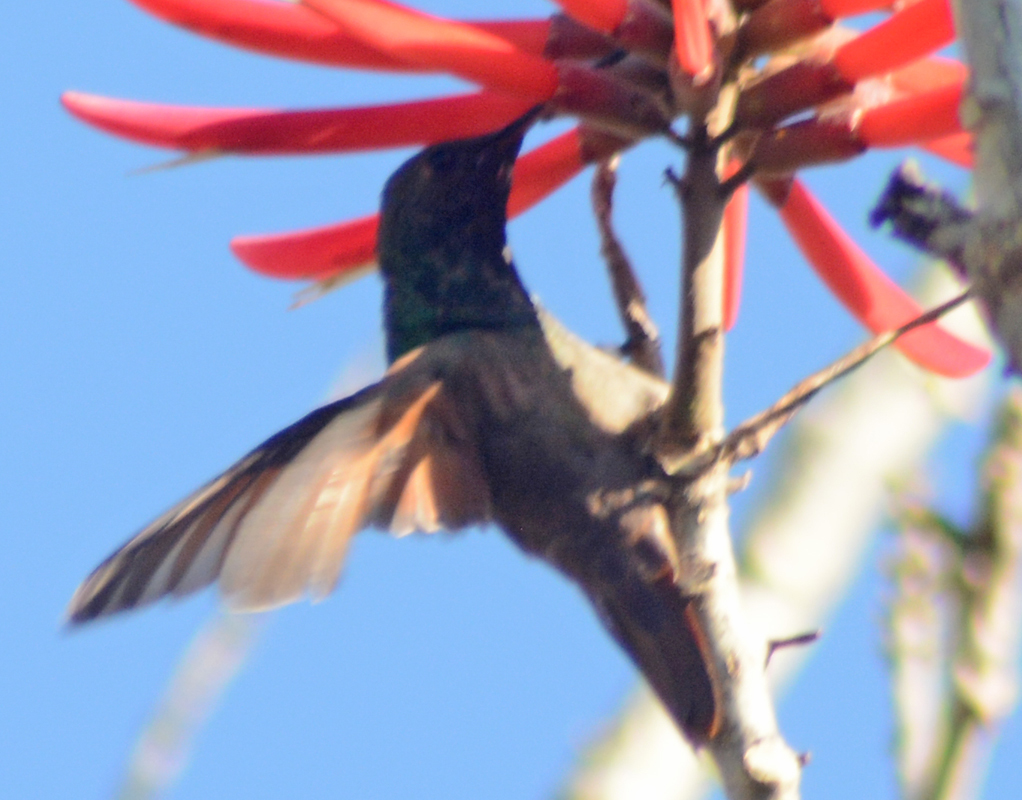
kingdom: Animalia
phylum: Chordata
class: Aves
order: Apodiformes
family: Trochilidae
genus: Saucerottia
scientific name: Saucerottia beryllina
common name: Berylline hummingbird
